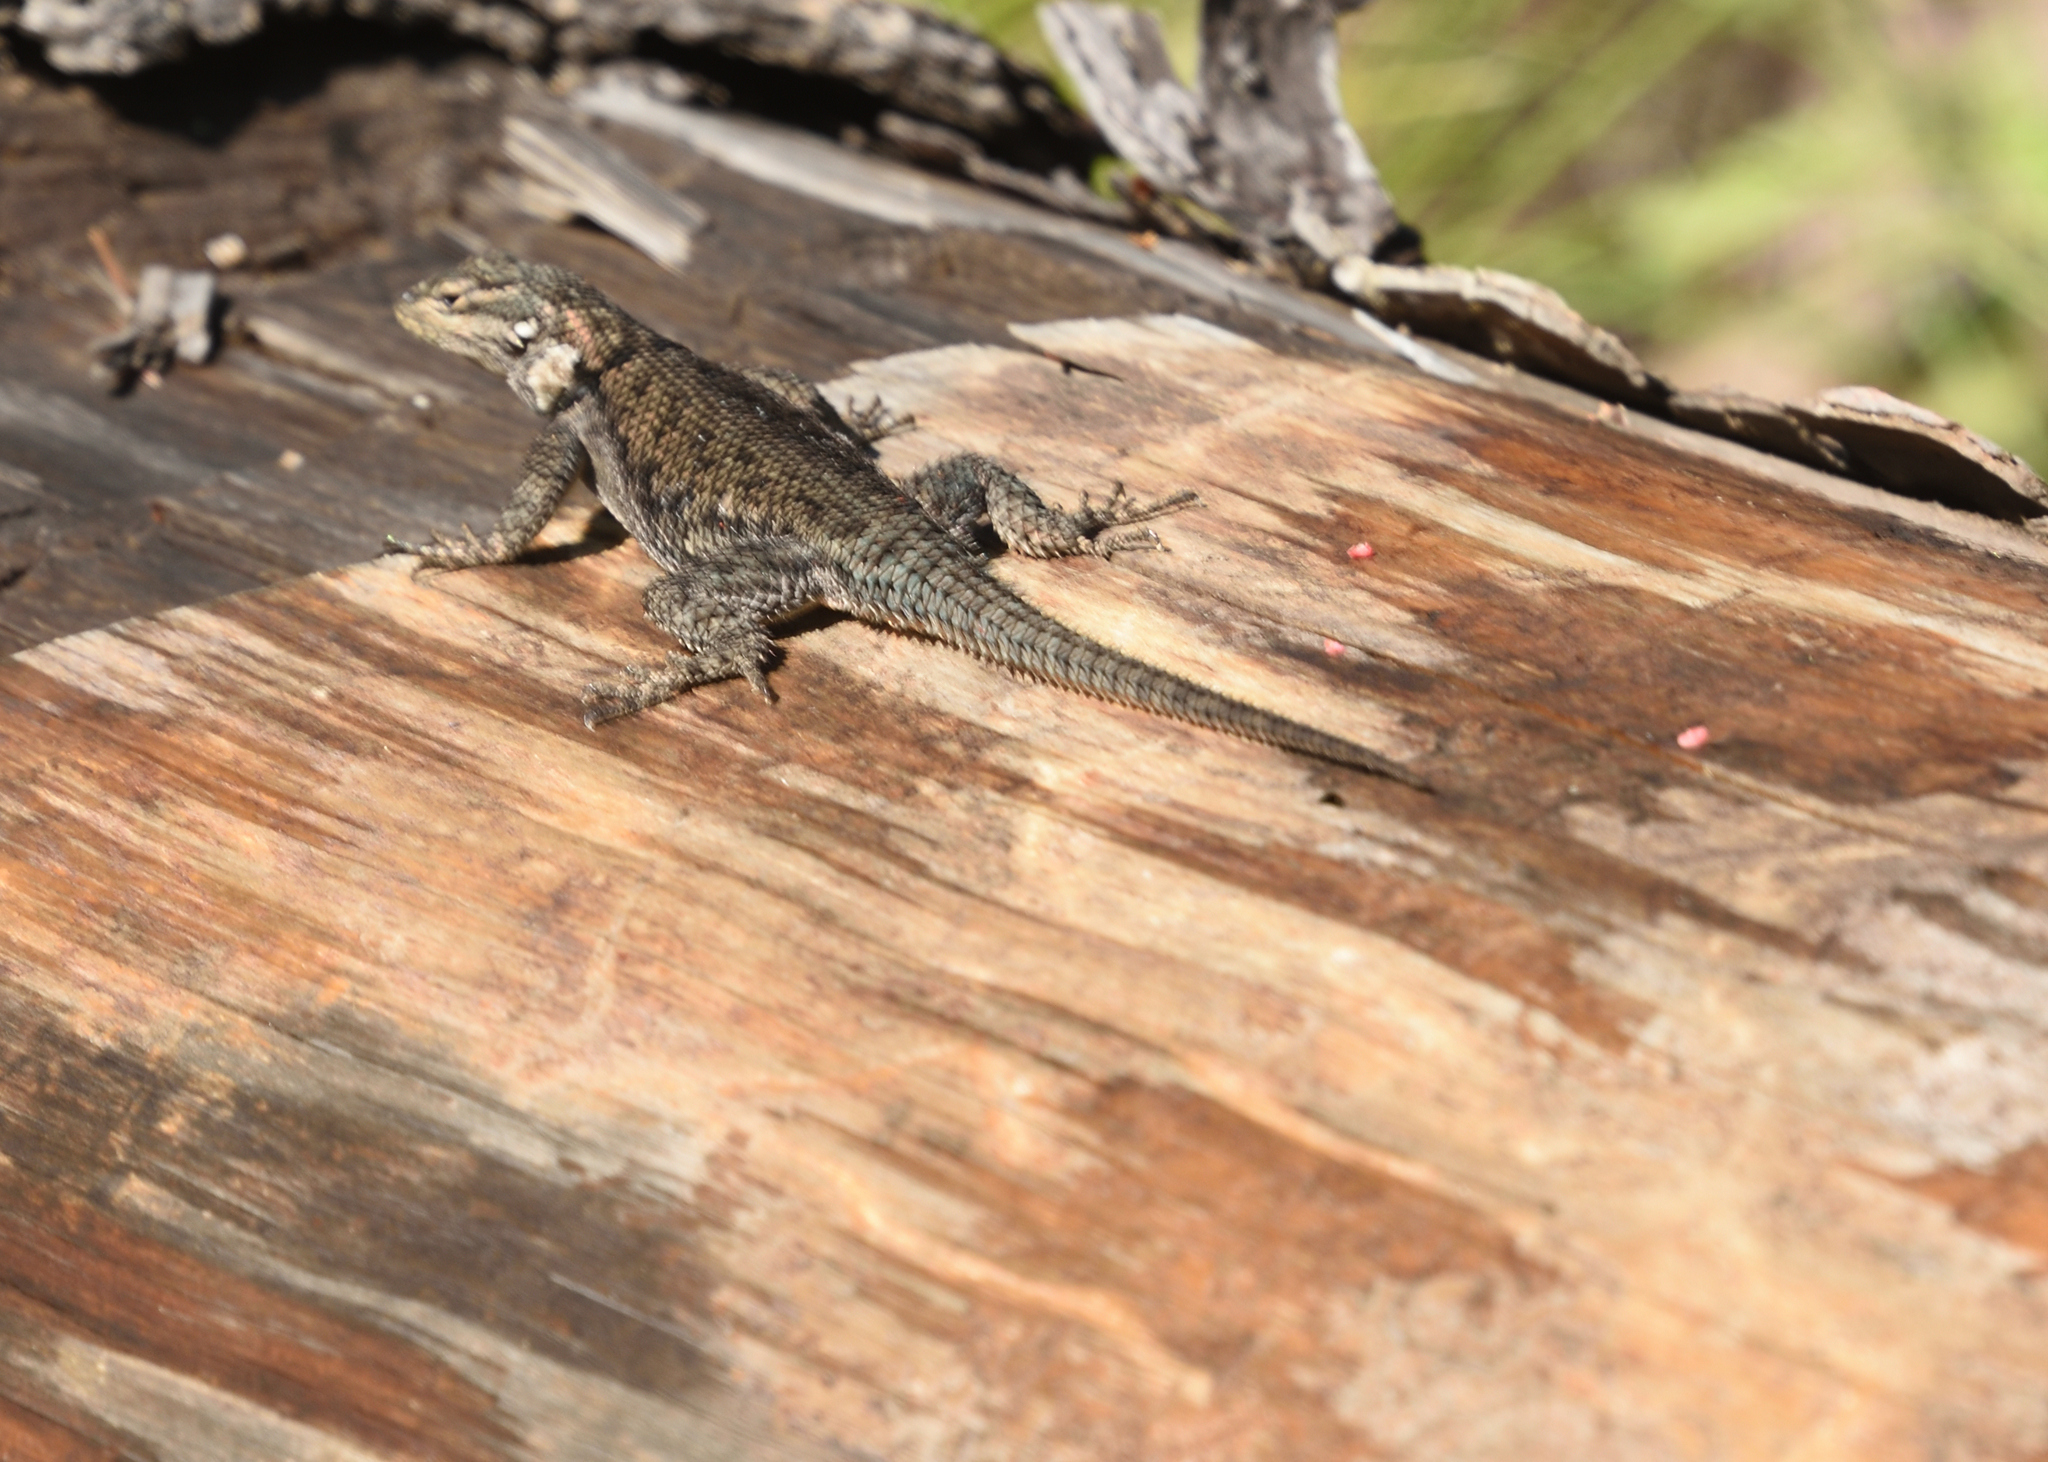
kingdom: Animalia
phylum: Chordata
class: Squamata
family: Phrynosomatidae
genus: Sceloporus
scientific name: Sceloporus jarrovii
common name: Yarrow's spiny lizard
